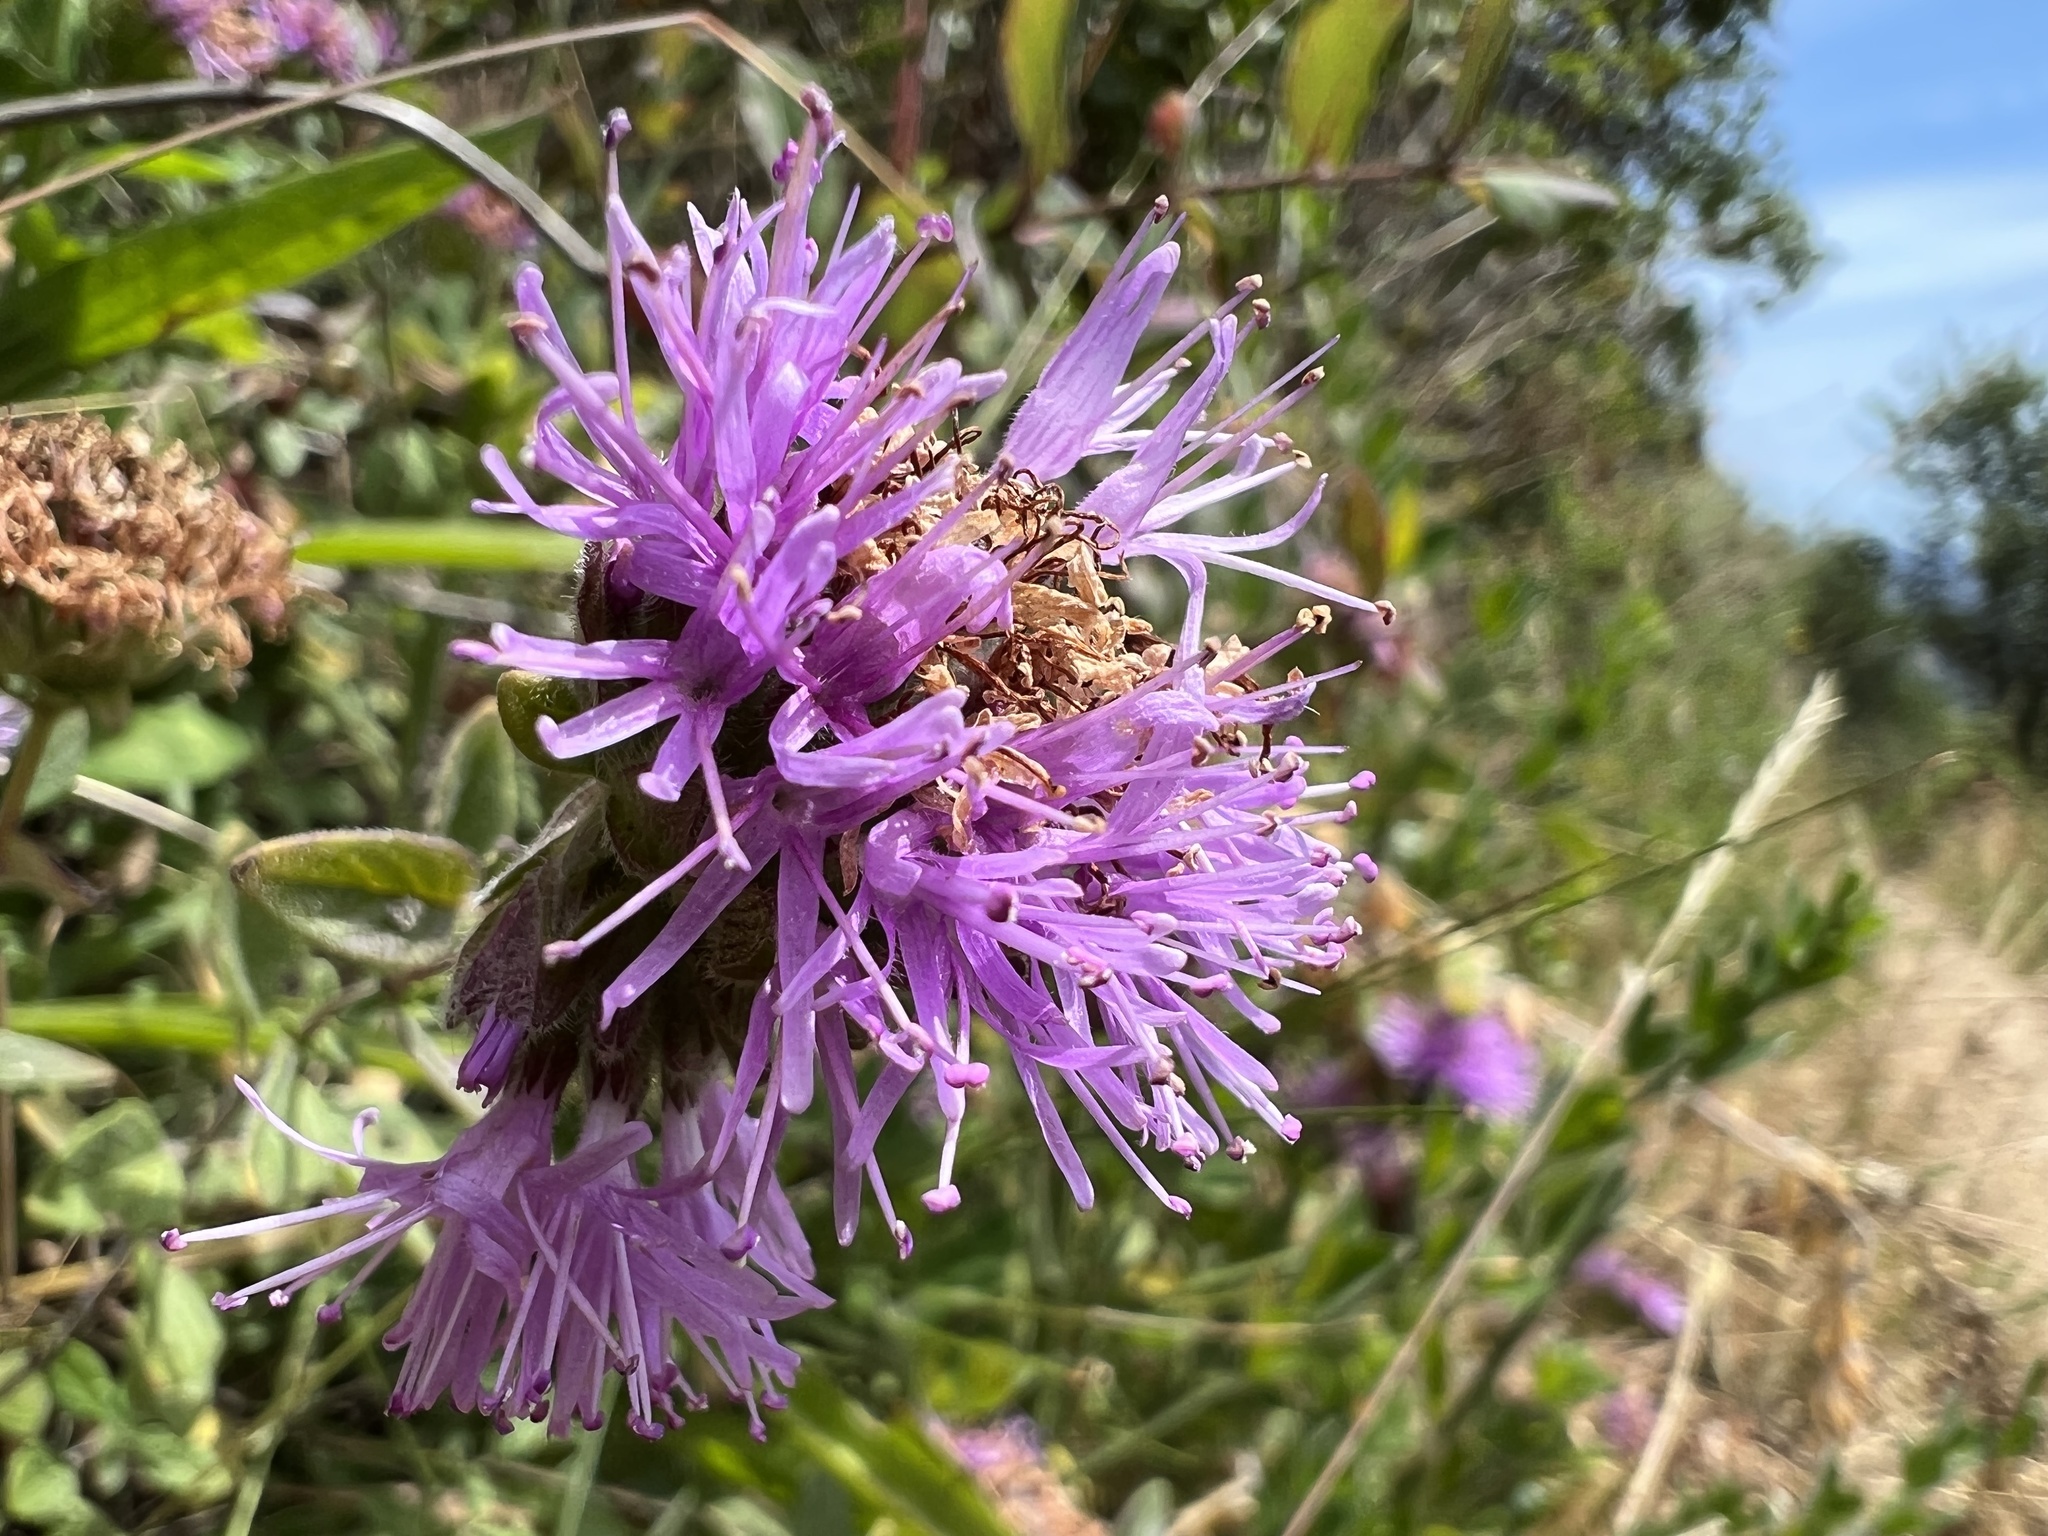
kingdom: Plantae
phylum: Tracheophyta
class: Magnoliopsida
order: Lamiales
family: Lamiaceae
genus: Monardella
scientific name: Monardella odoratissima
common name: Pacific monardella
